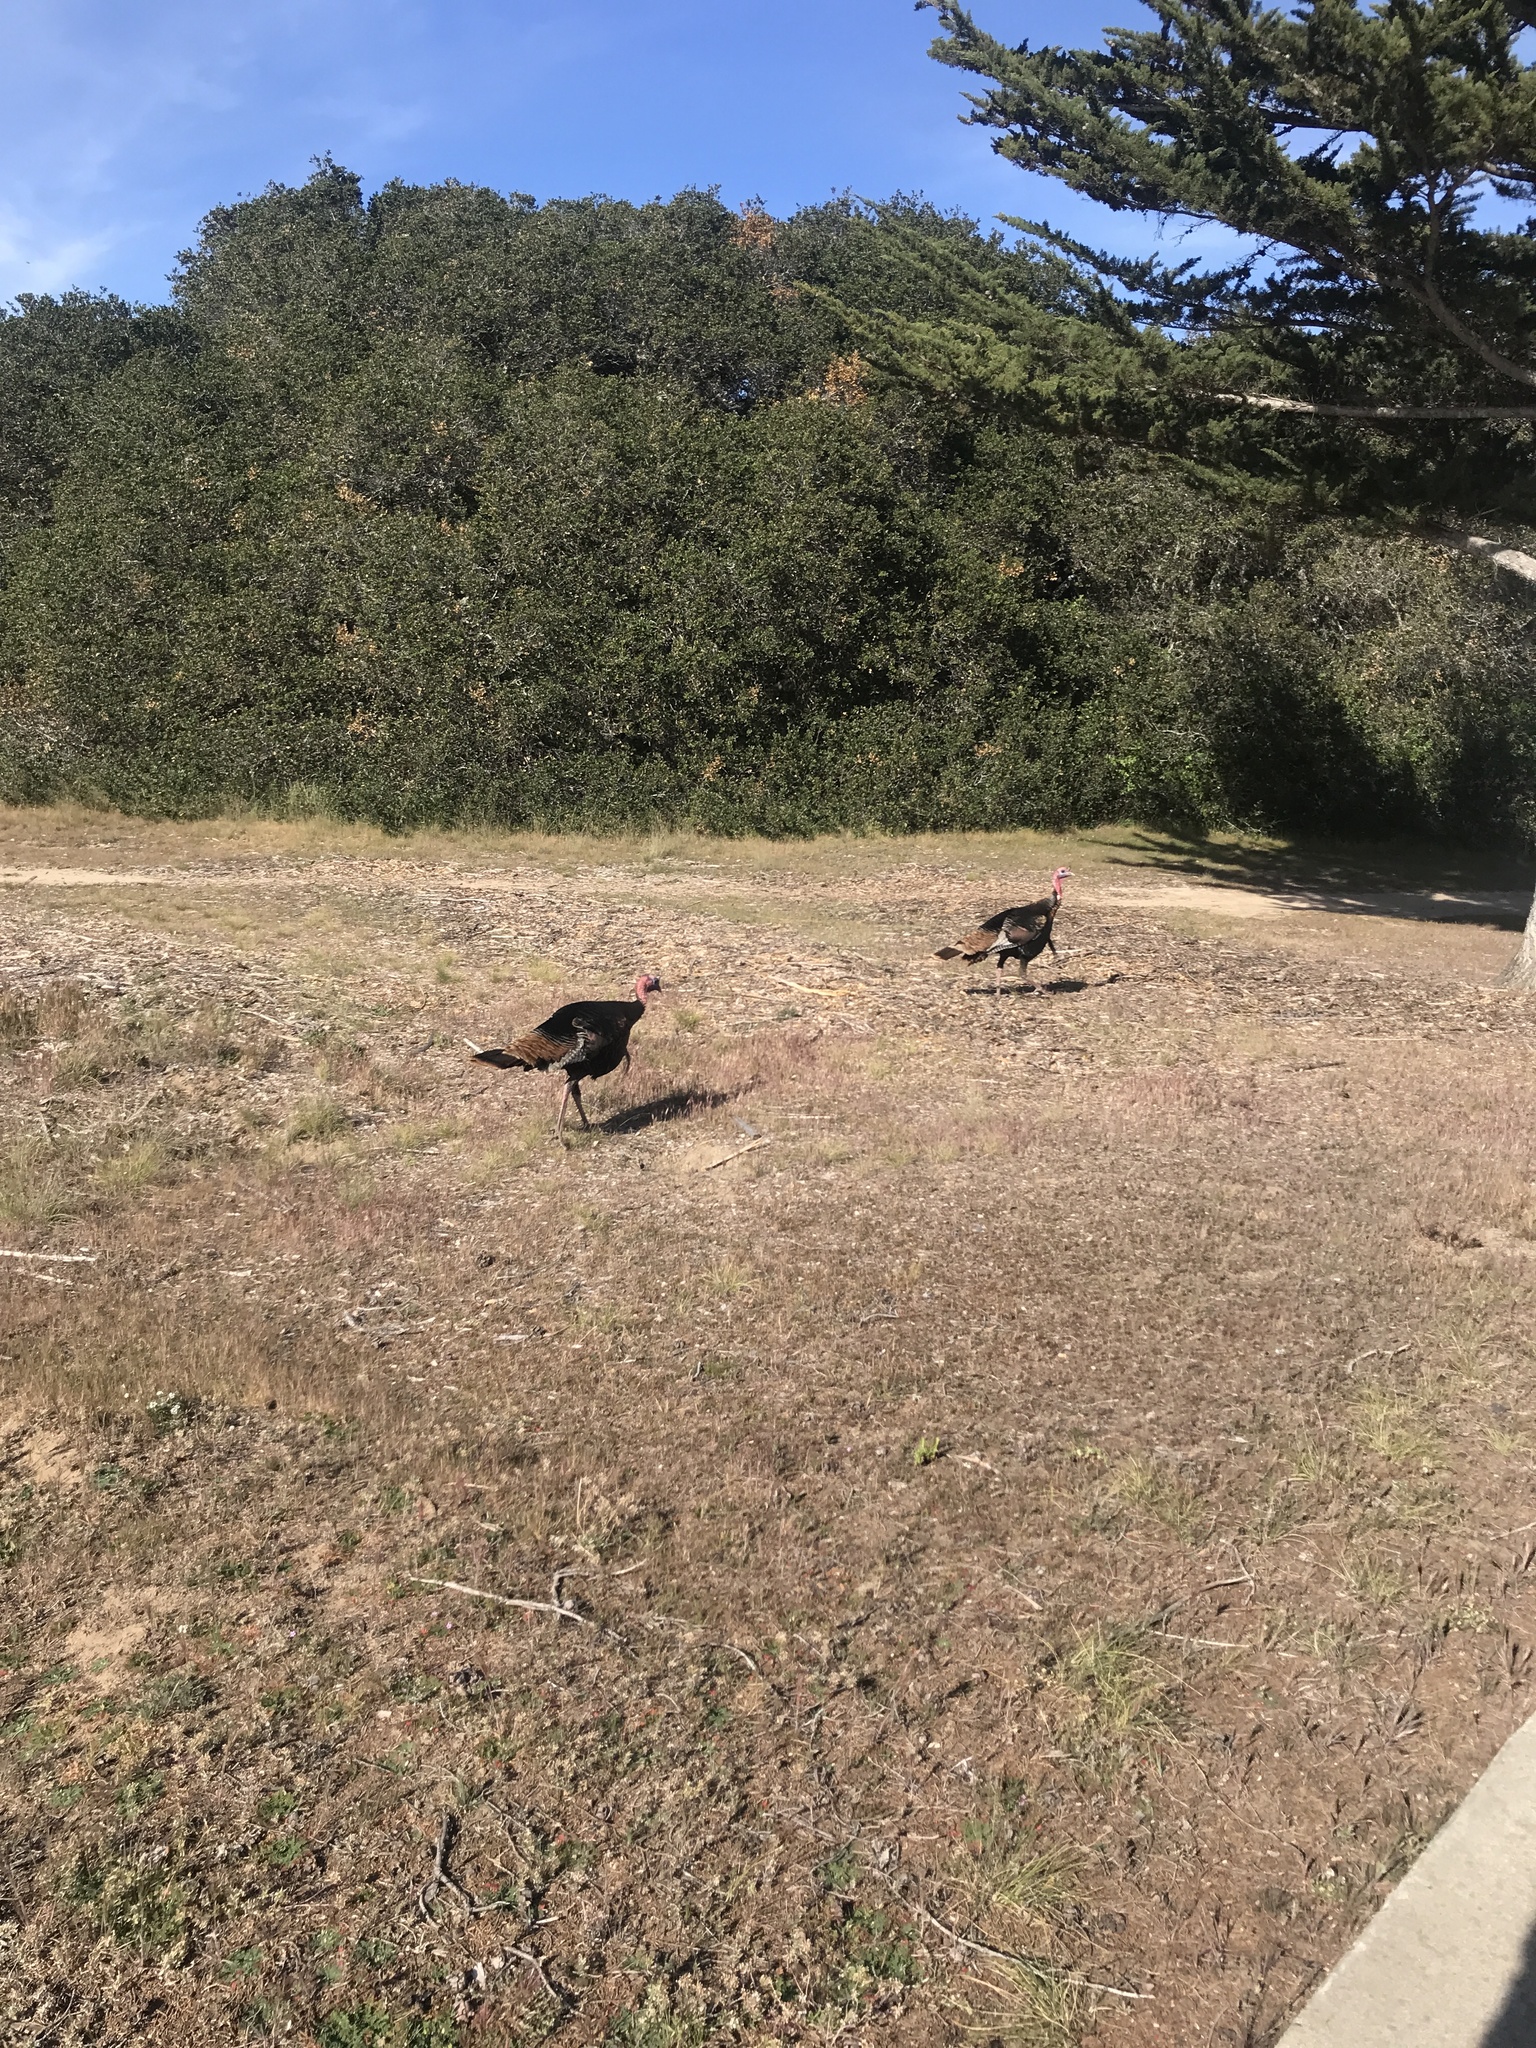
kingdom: Animalia
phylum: Chordata
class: Aves
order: Galliformes
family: Phasianidae
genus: Meleagris
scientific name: Meleagris gallopavo
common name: Wild turkey
